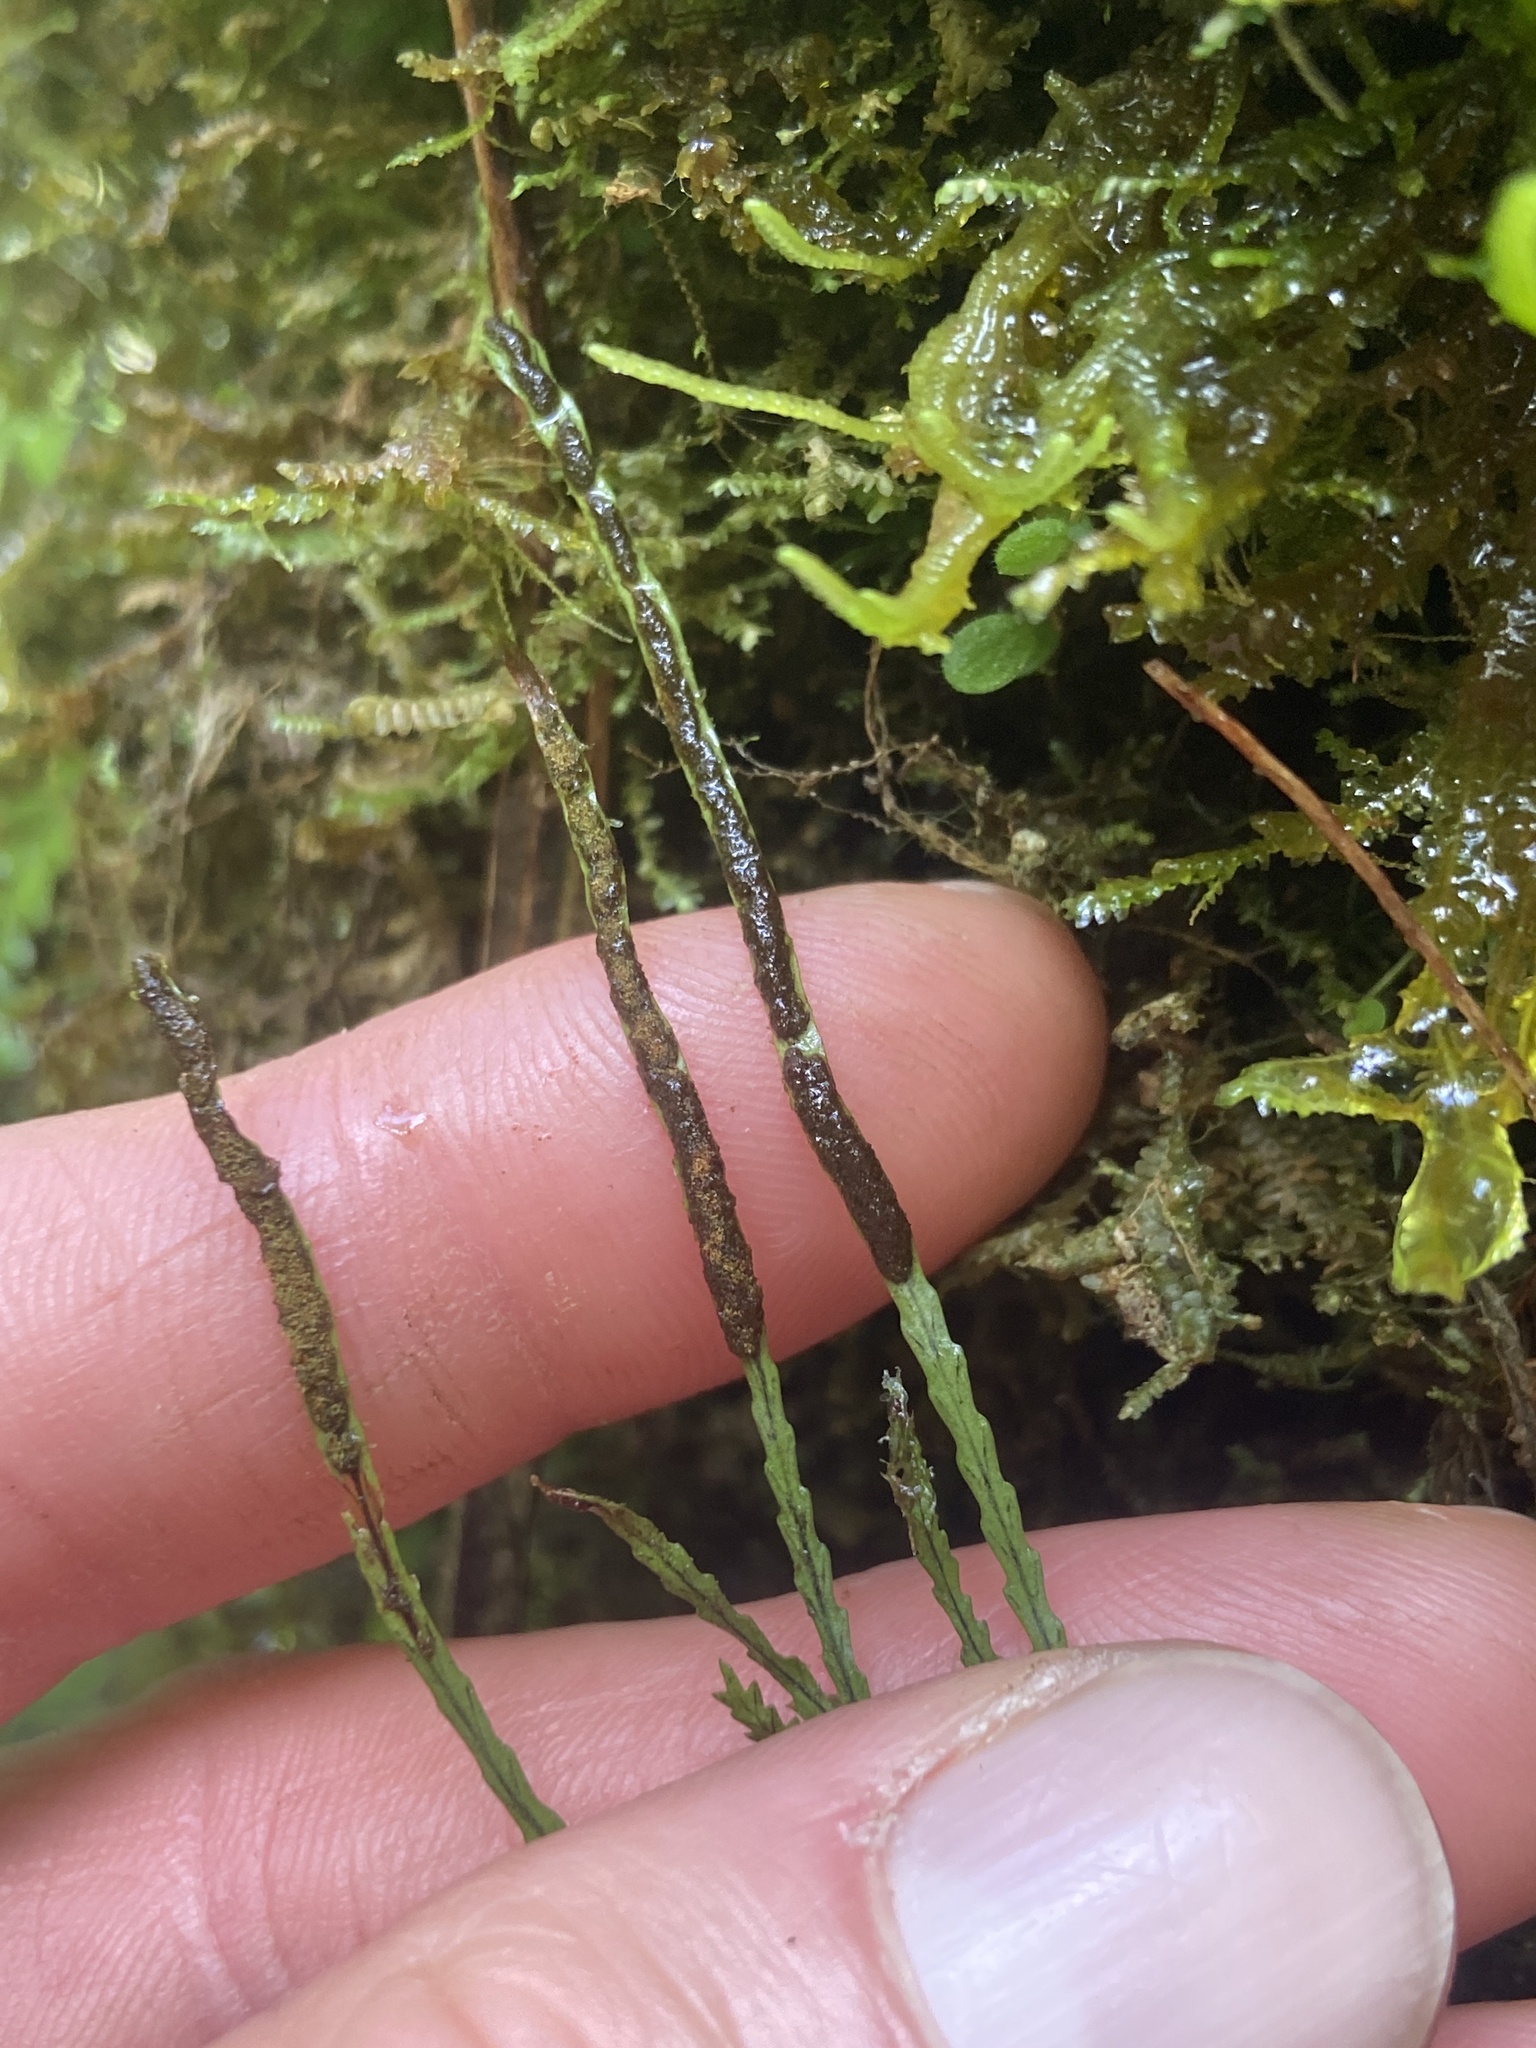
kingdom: Plantae
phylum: Tracheophyta
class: Polypodiopsida
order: Polypodiales
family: Polypodiaceae
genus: Cochlidium
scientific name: Cochlidium serrulatum
